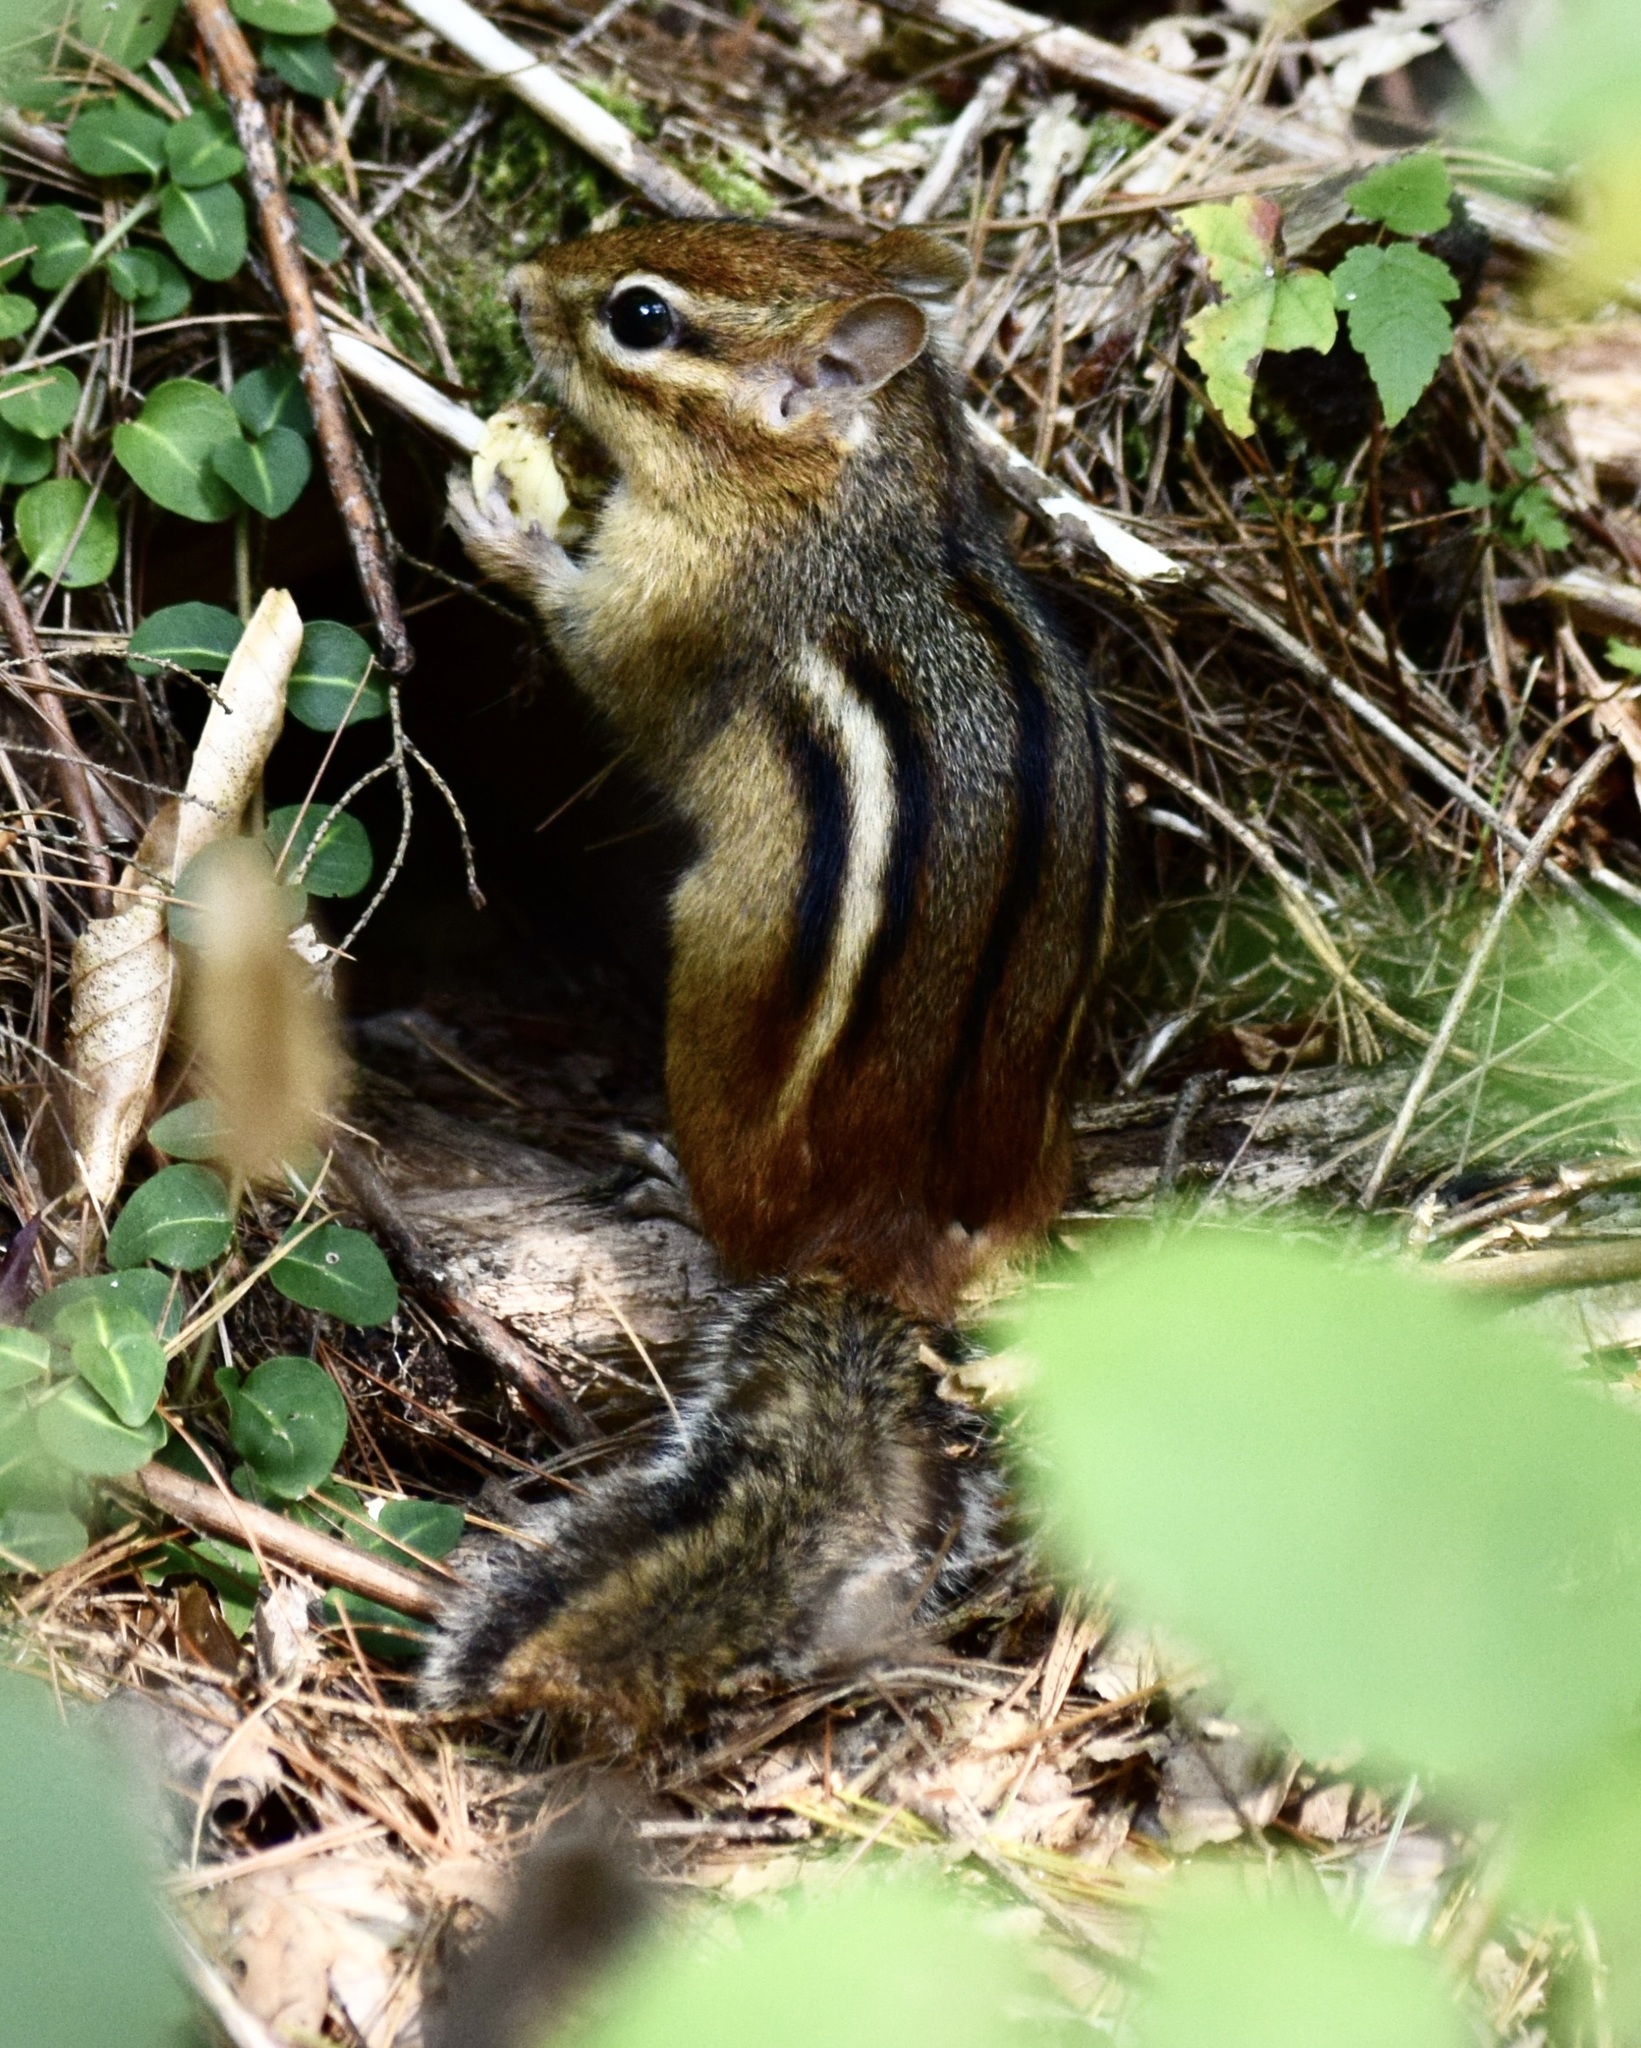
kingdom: Animalia
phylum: Chordata
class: Mammalia
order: Rodentia
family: Sciuridae
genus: Tamias
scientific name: Tamias striatus
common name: Eastern chipmunk
